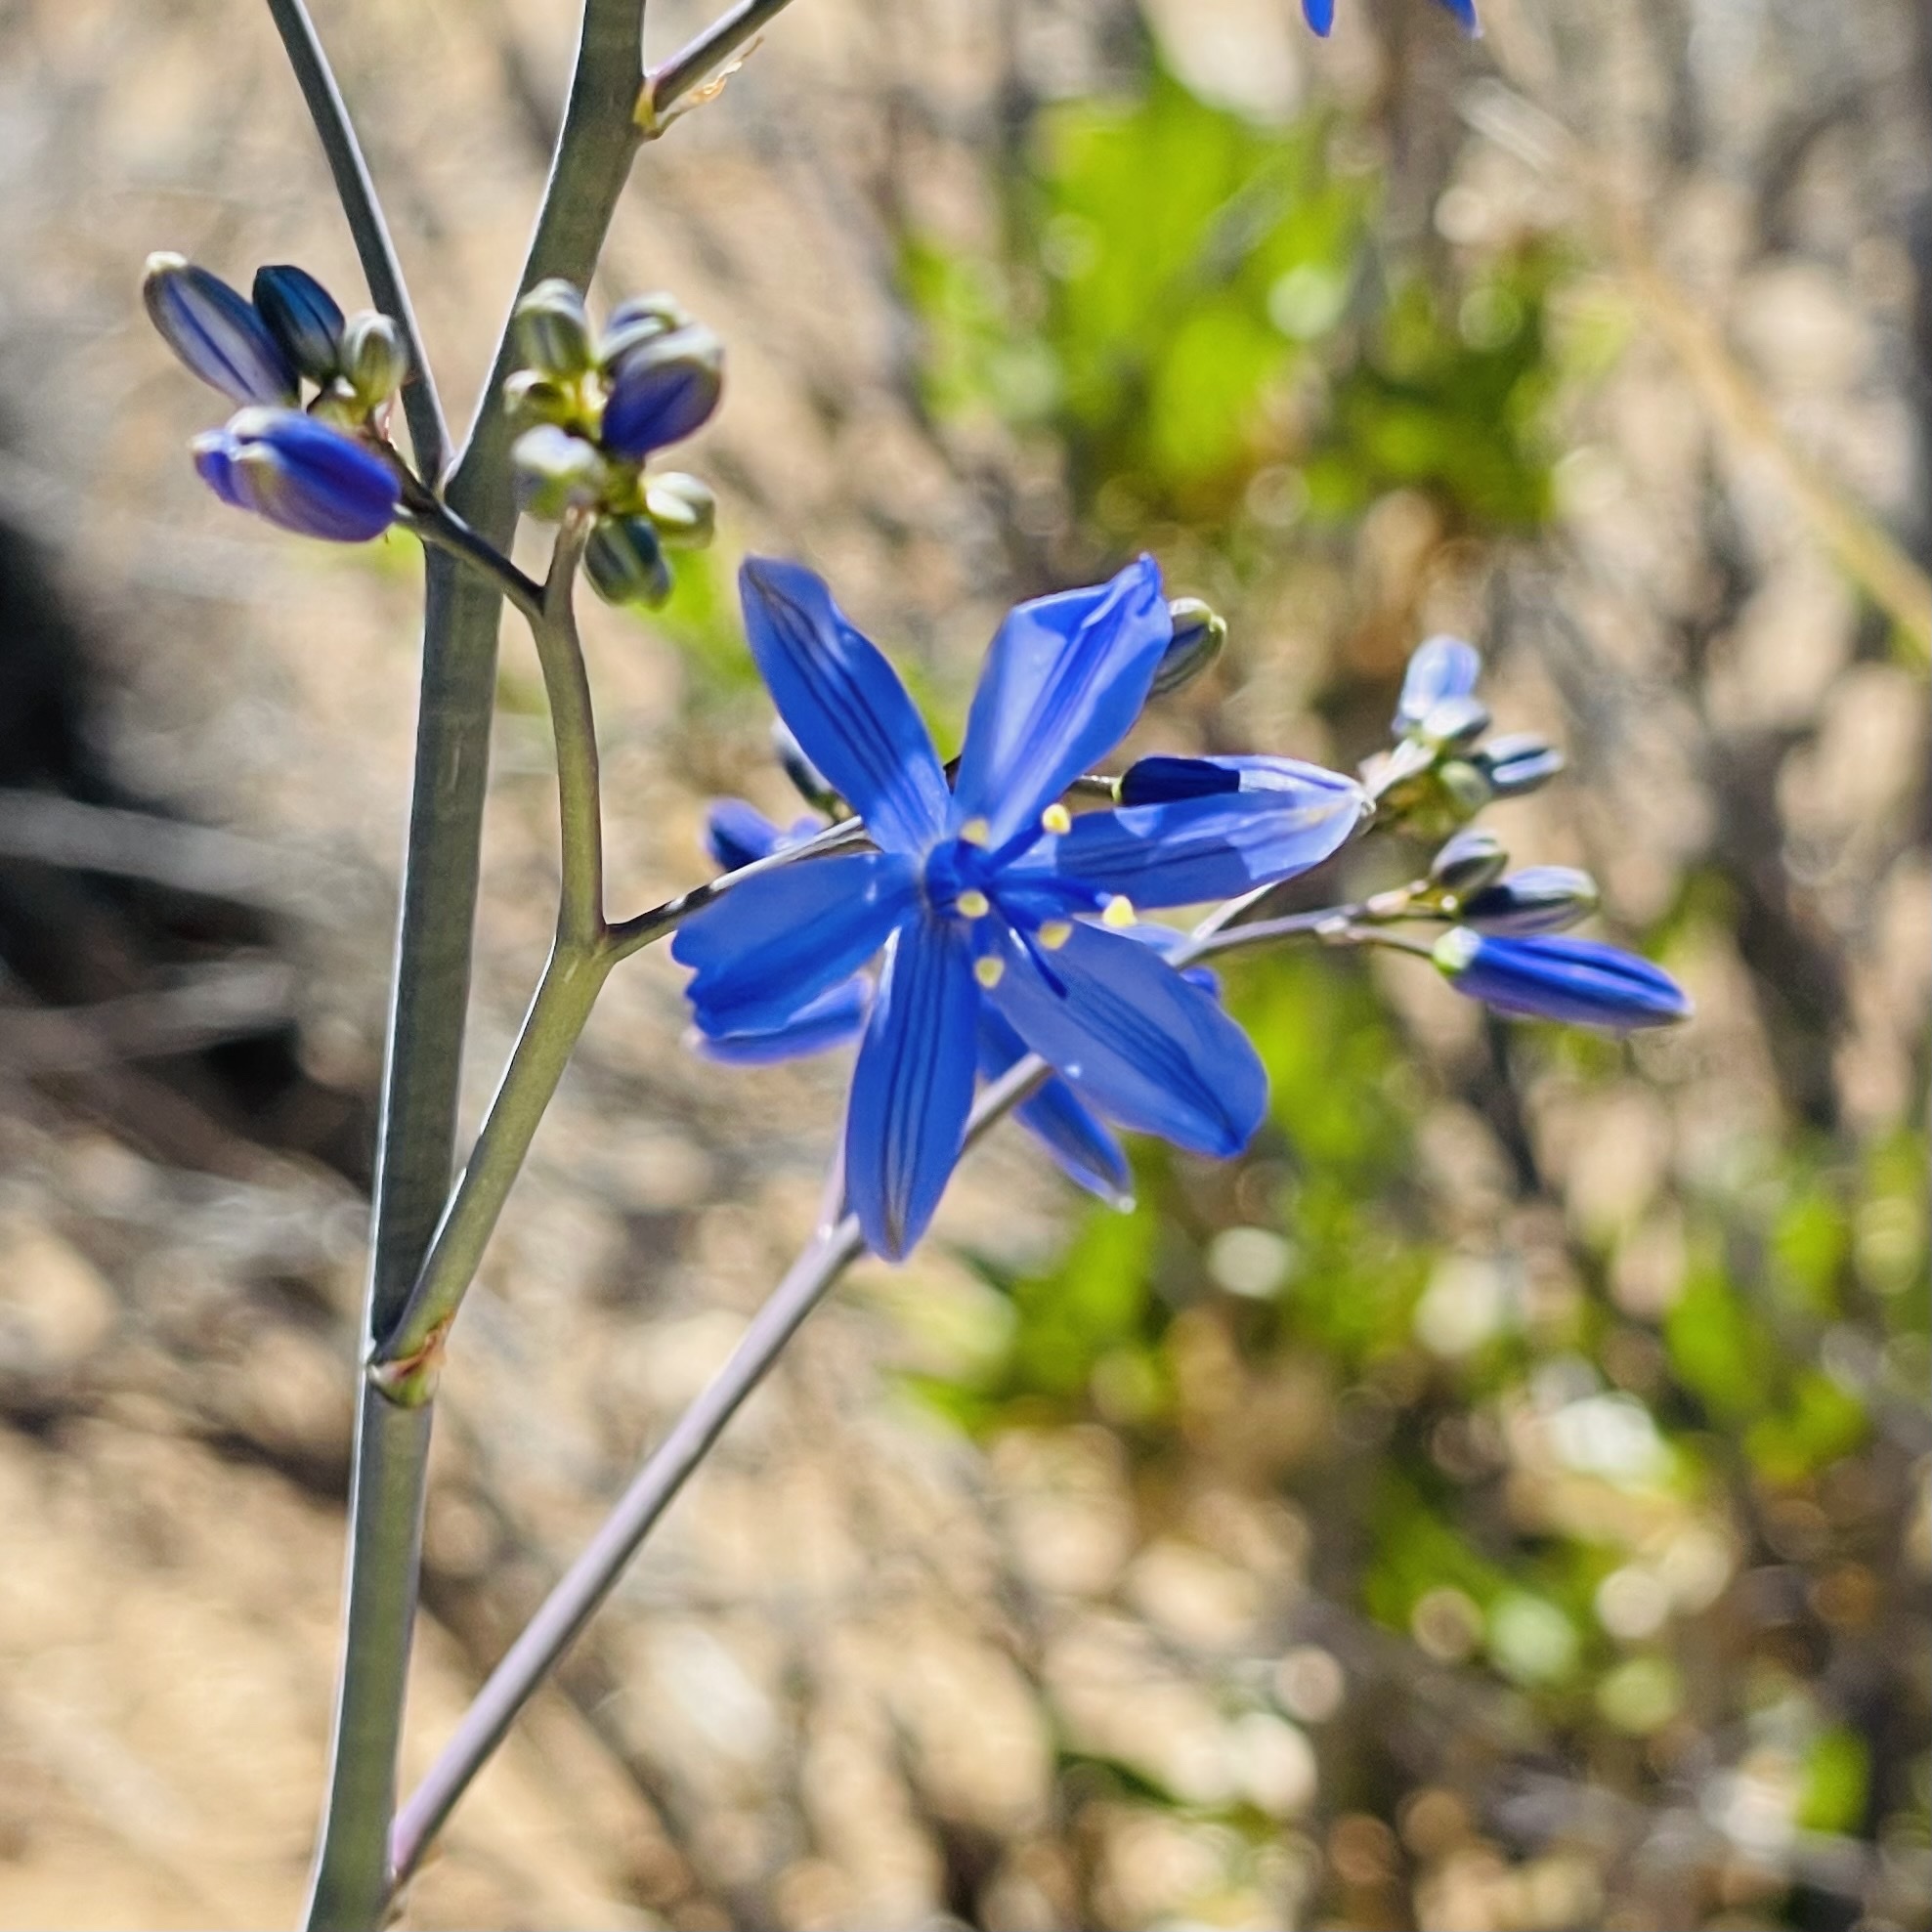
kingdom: Plantae
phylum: Tracheophyta
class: Liliopsida
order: Asparagales
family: Asphodelaceae
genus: Pasithea
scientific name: Pasithea caerulea
